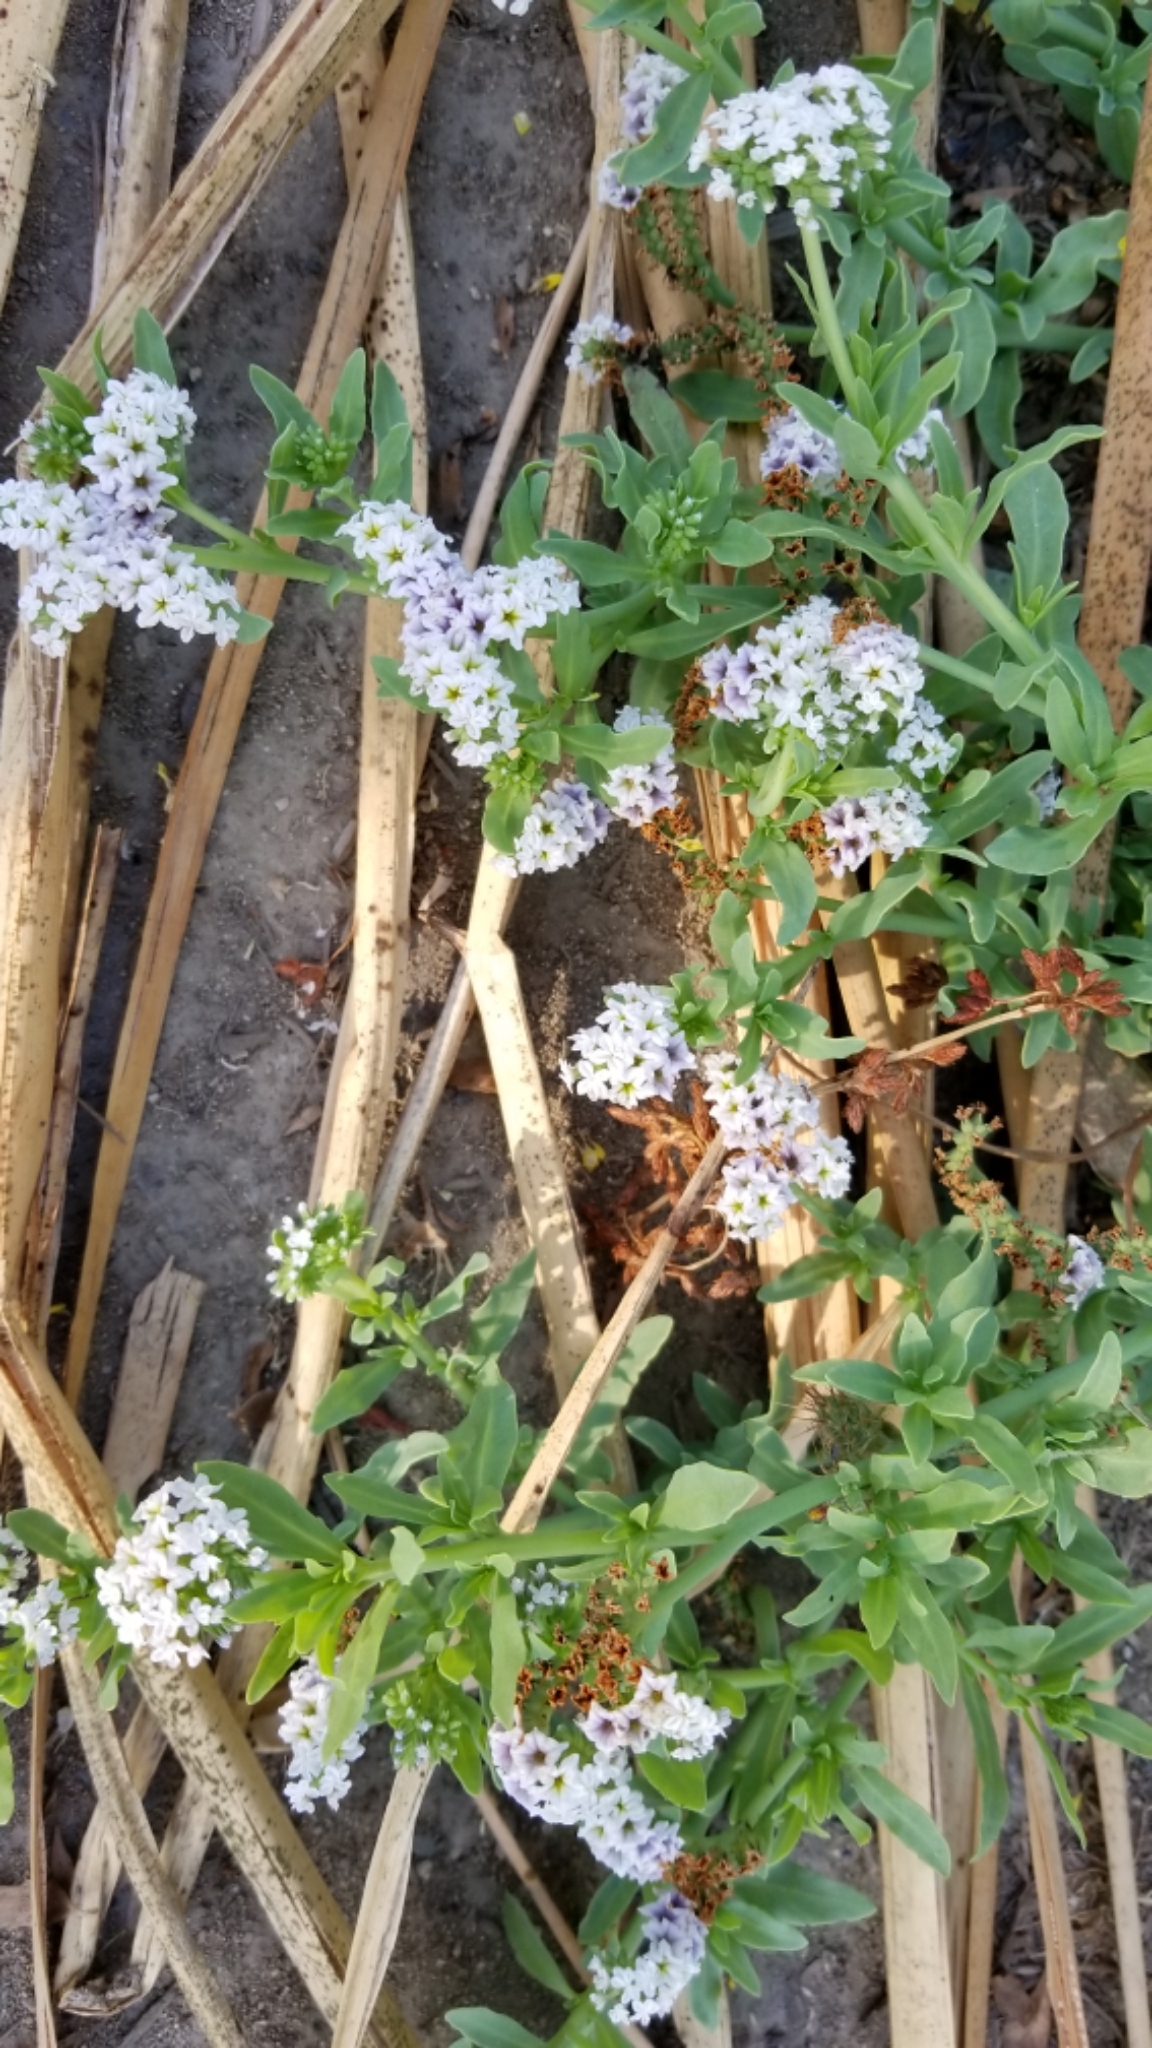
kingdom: Plantae
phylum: Tracheophyta
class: Magnoliopsida
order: Boraginales
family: Heliotropiaceae
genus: Heliotropium
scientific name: Heliotropium curassavicum
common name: Seaside heliotrope
